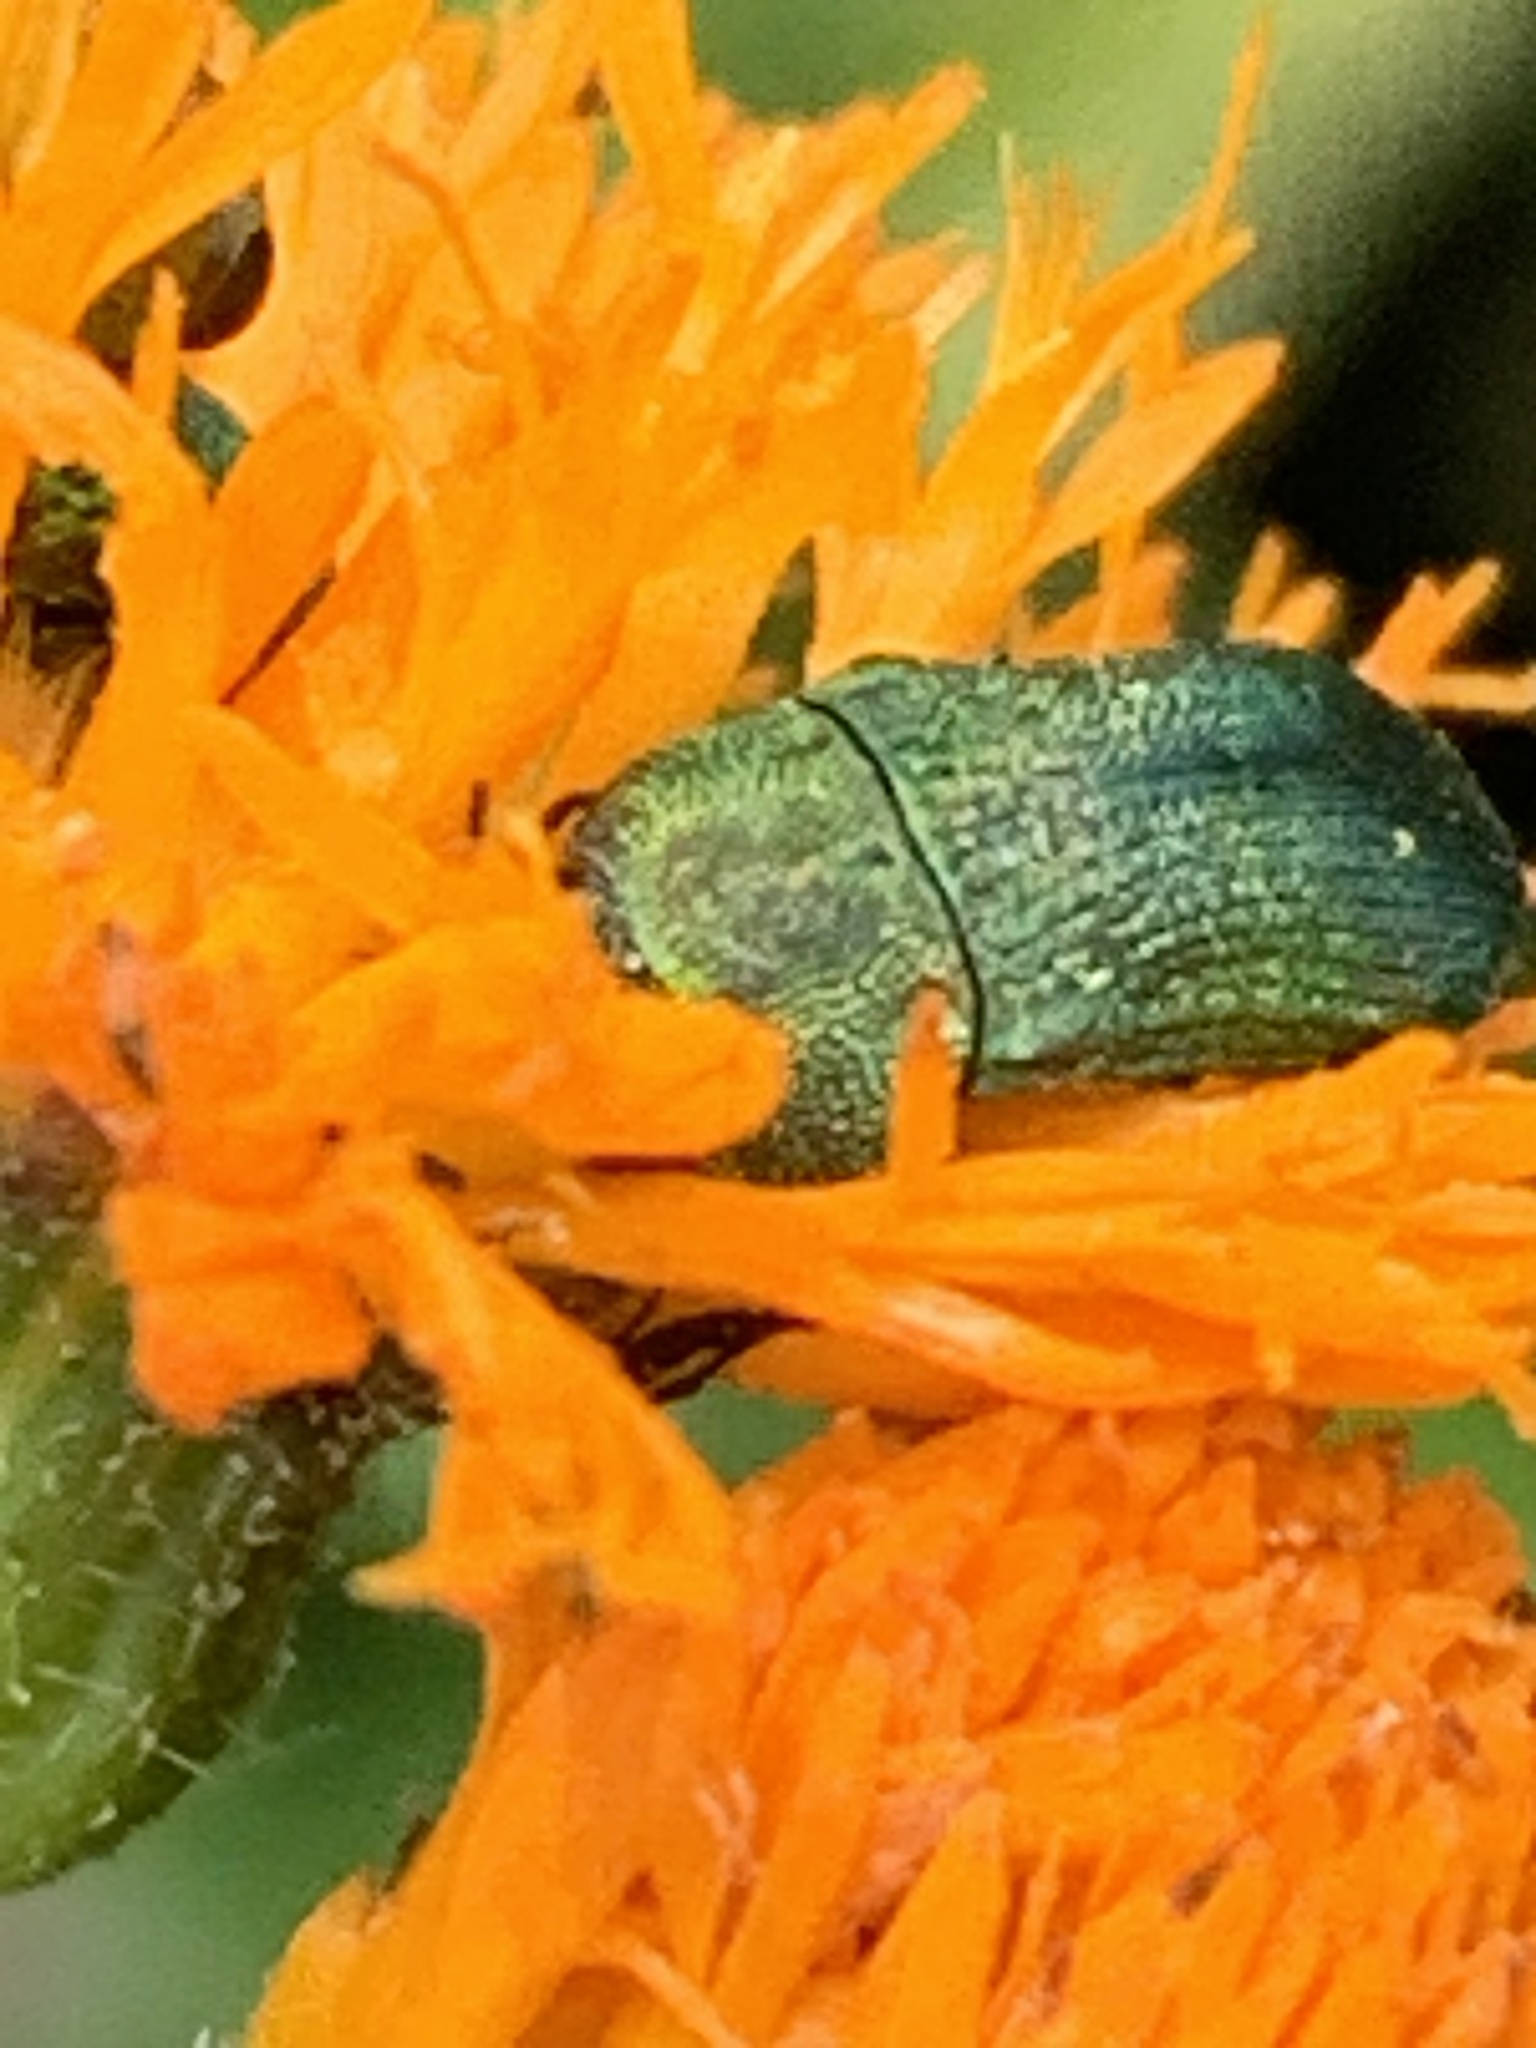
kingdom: Animalia
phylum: Arthropoda
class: Insecta
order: Coleoptera
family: Buprestidae
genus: Acmaeodera
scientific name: Acmaeodera subprasina
